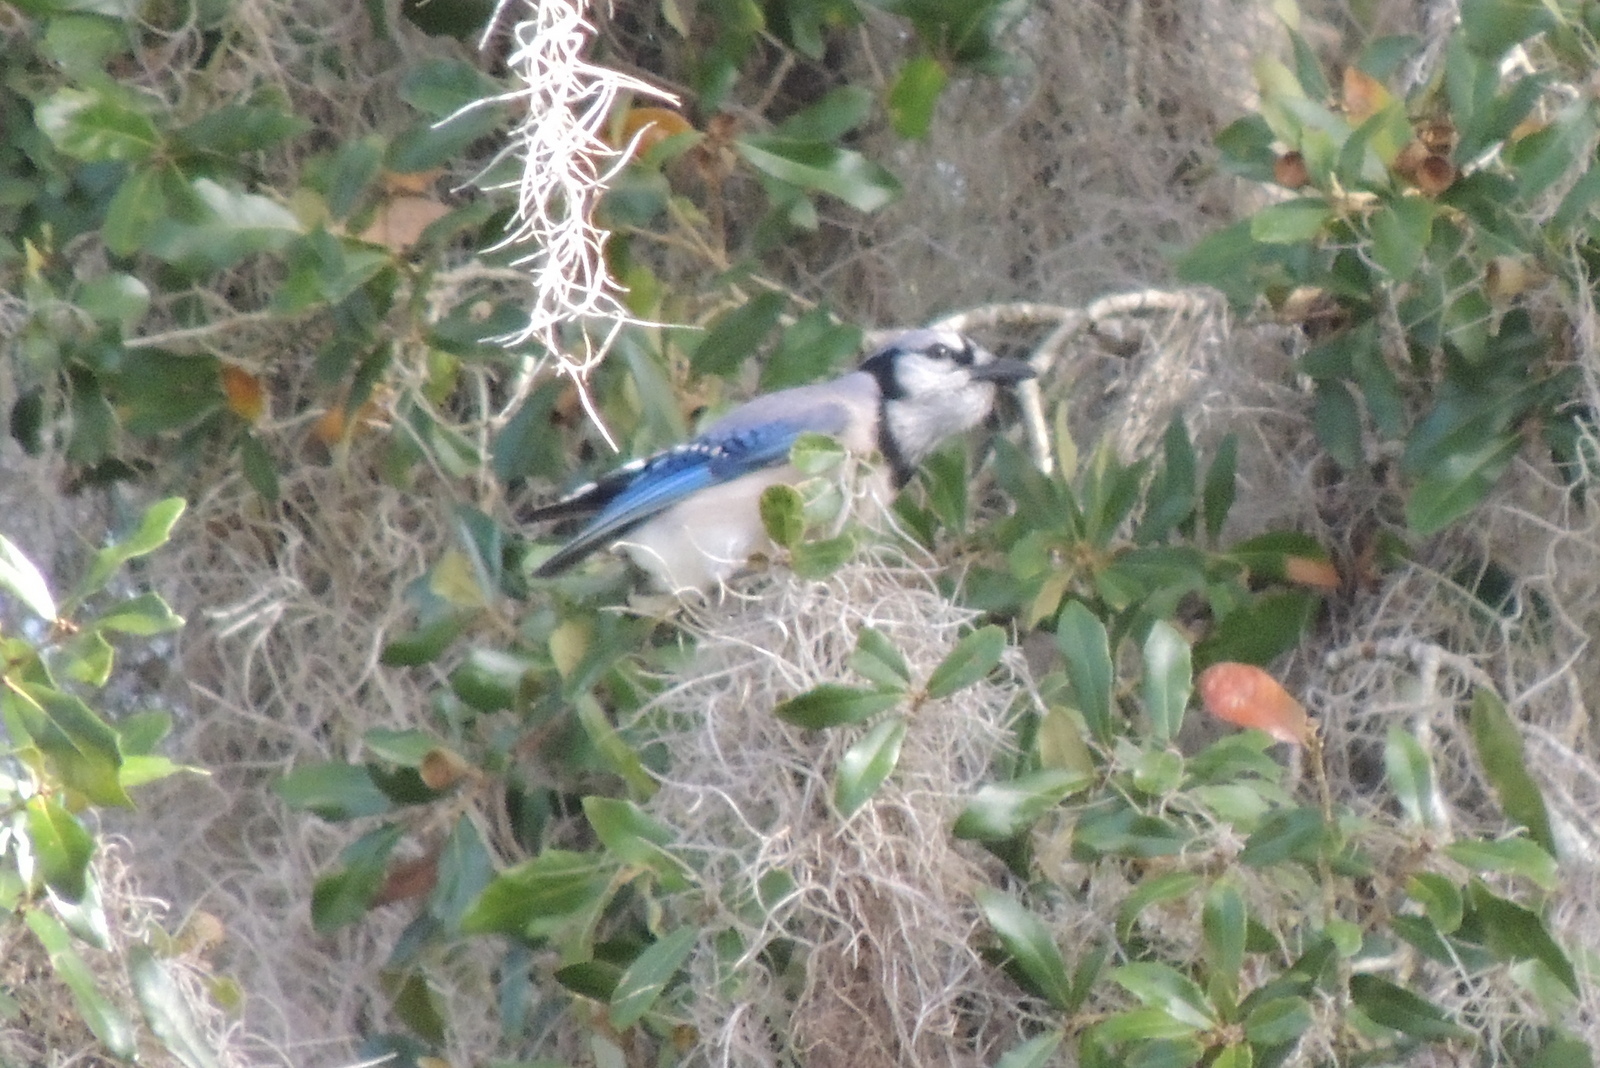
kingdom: Animalia
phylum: Chordata
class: Aves
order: Passeriformes
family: Corvidae
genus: Cyanocitta
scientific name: Cyanocitta cristata
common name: Blue jay
